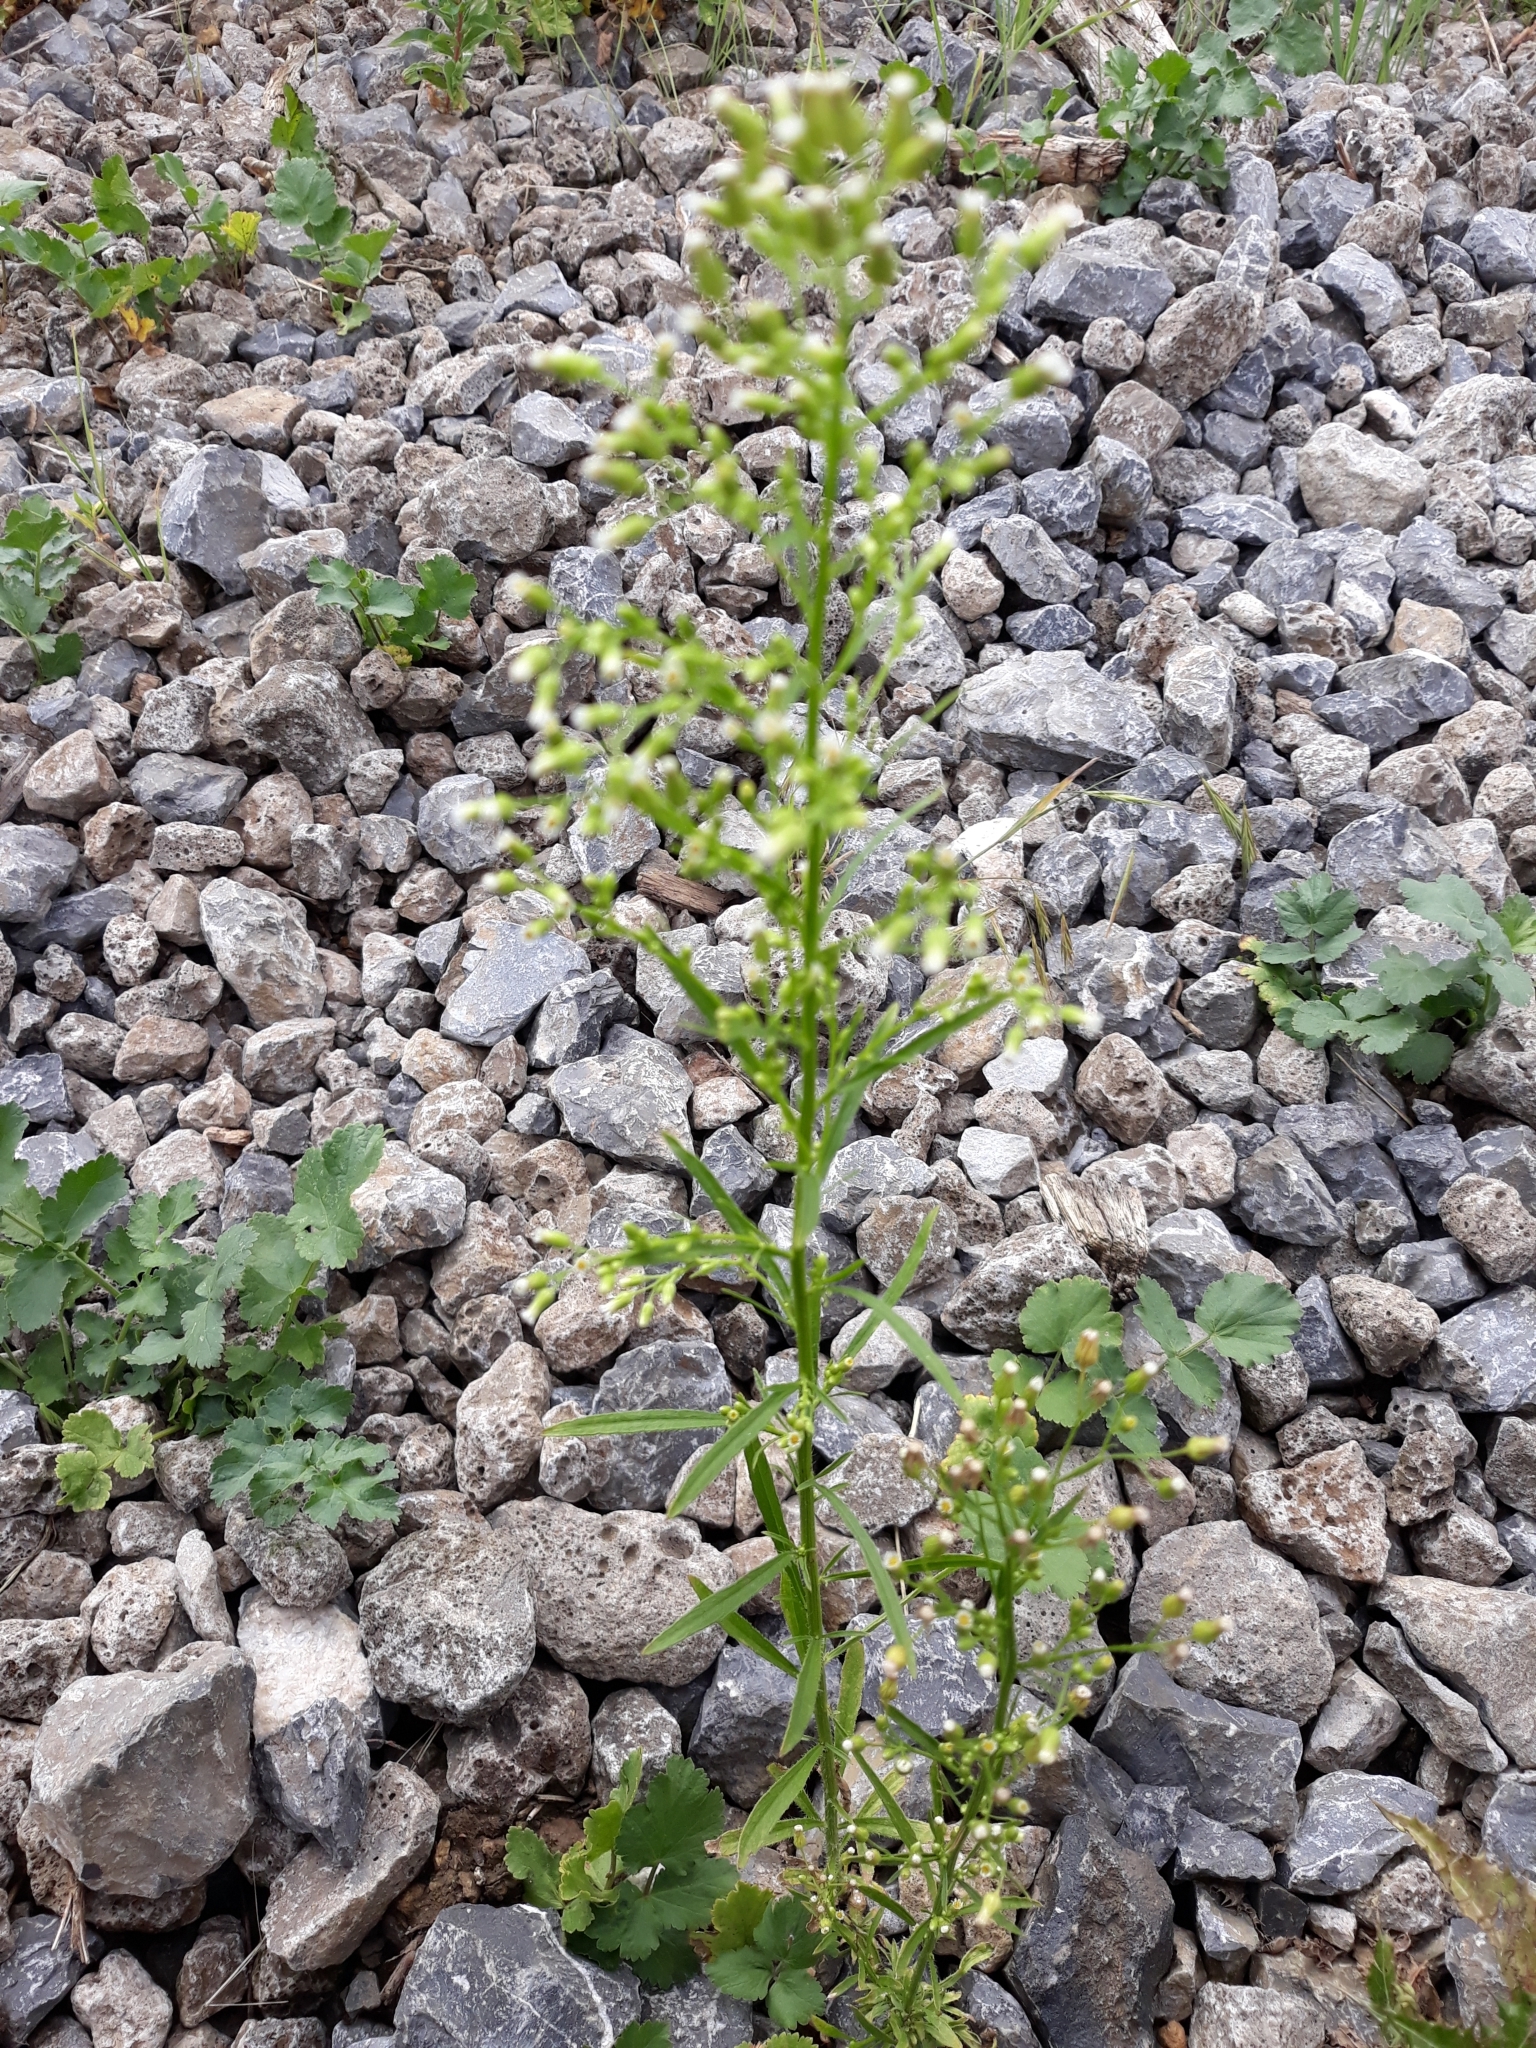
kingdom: Plantae
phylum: Tracheophyta
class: Magnoliopsida
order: Asterales
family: Asteraceae
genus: Erigeron
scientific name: Erigeron canadensis
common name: Canadian fleabane
